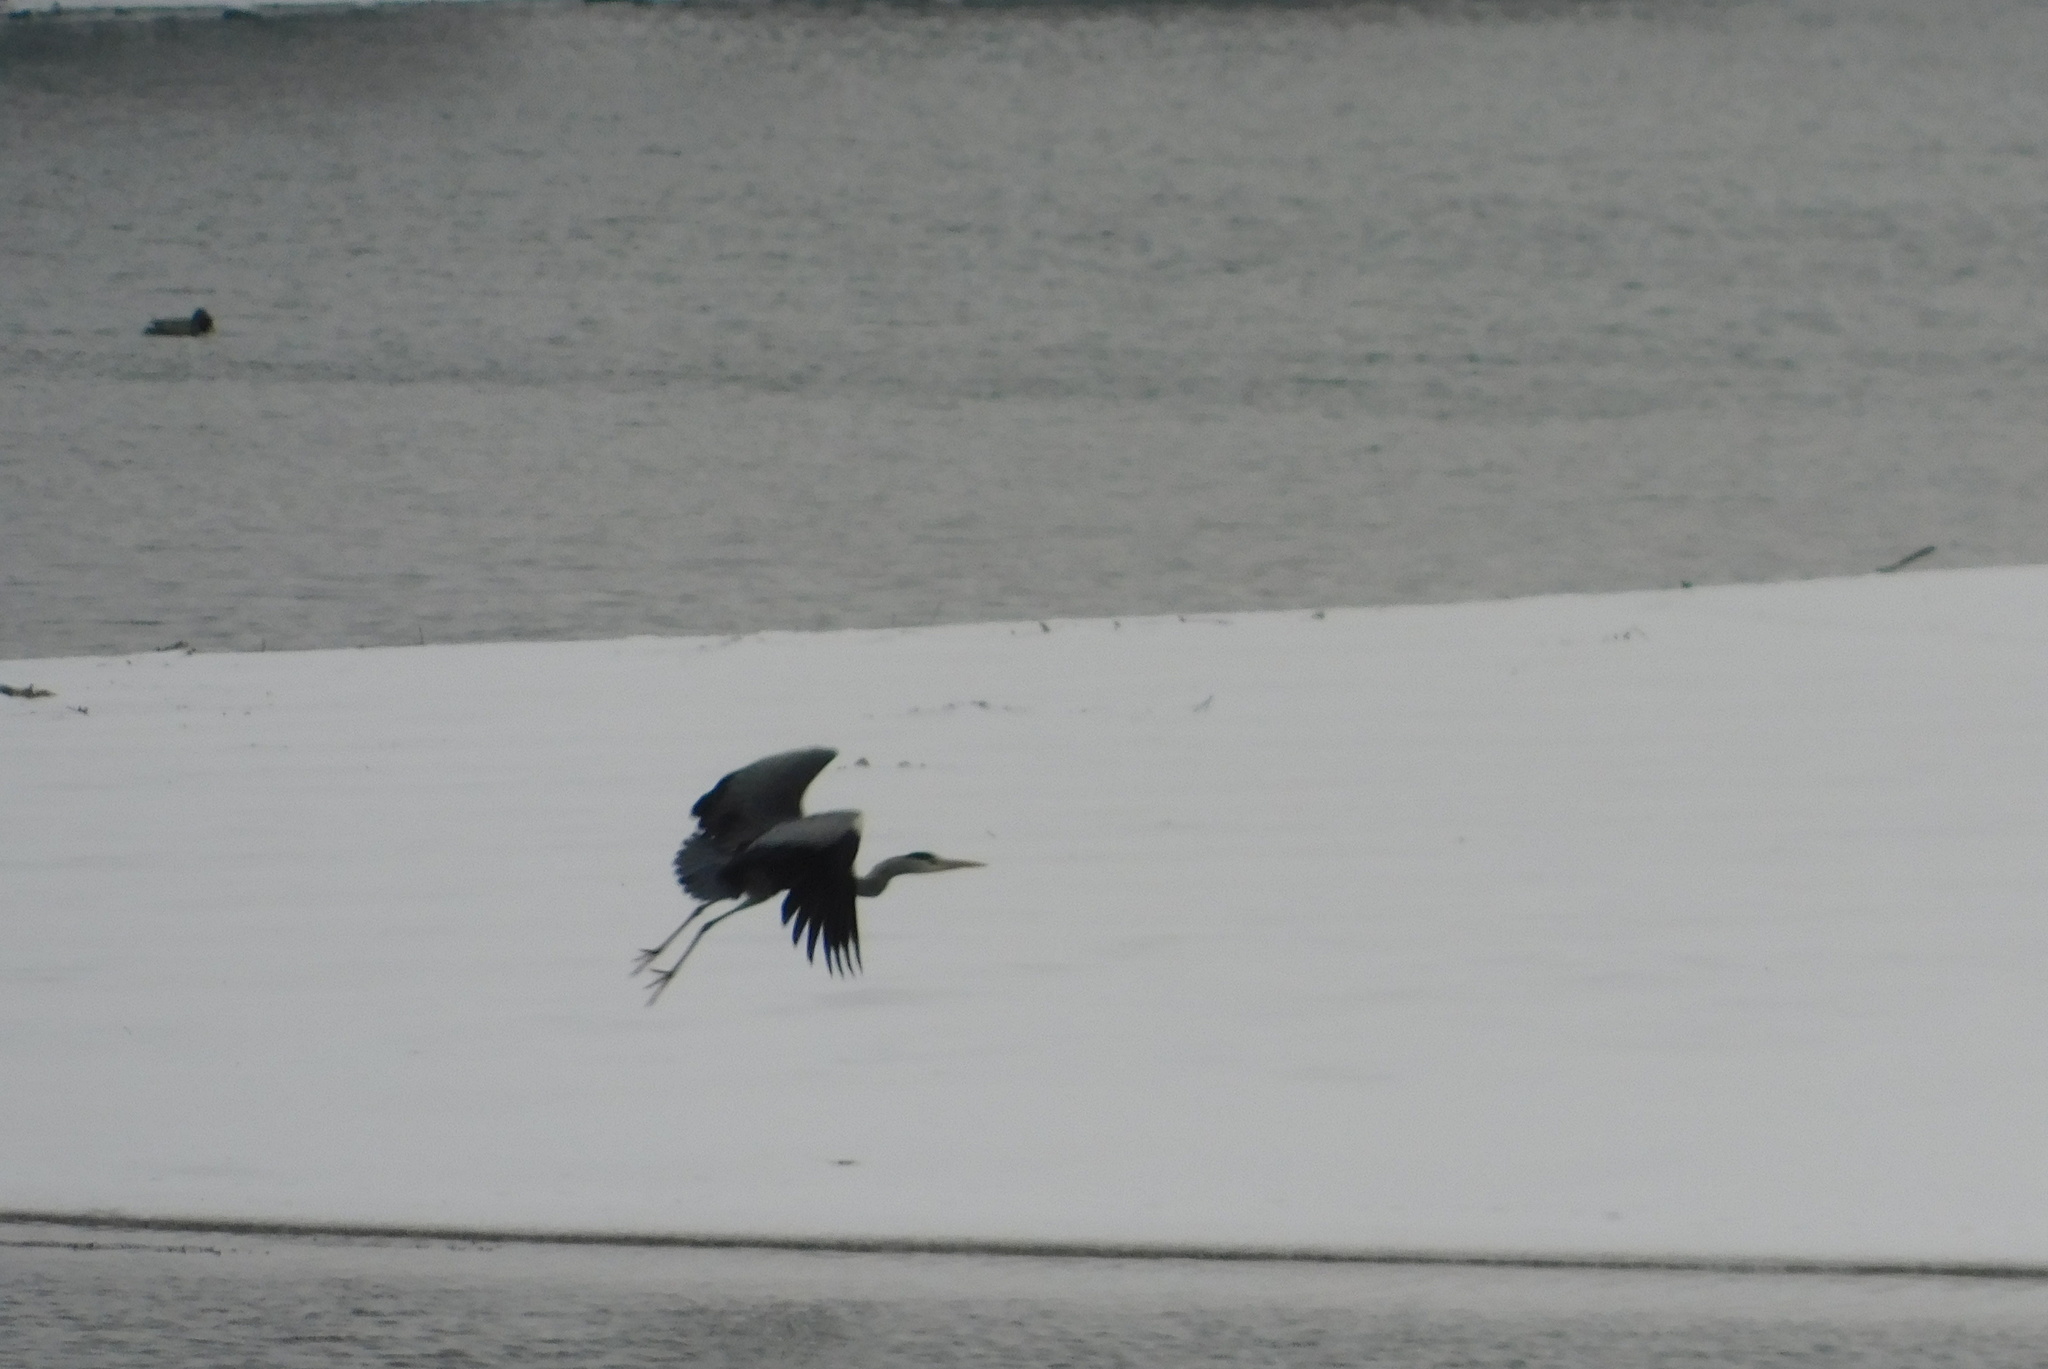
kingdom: Animalia
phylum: Chordata
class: Aves
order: Pelecaniformes
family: Ardeidae
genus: Ardea
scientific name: Ardea cinerea
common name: Grey heron
